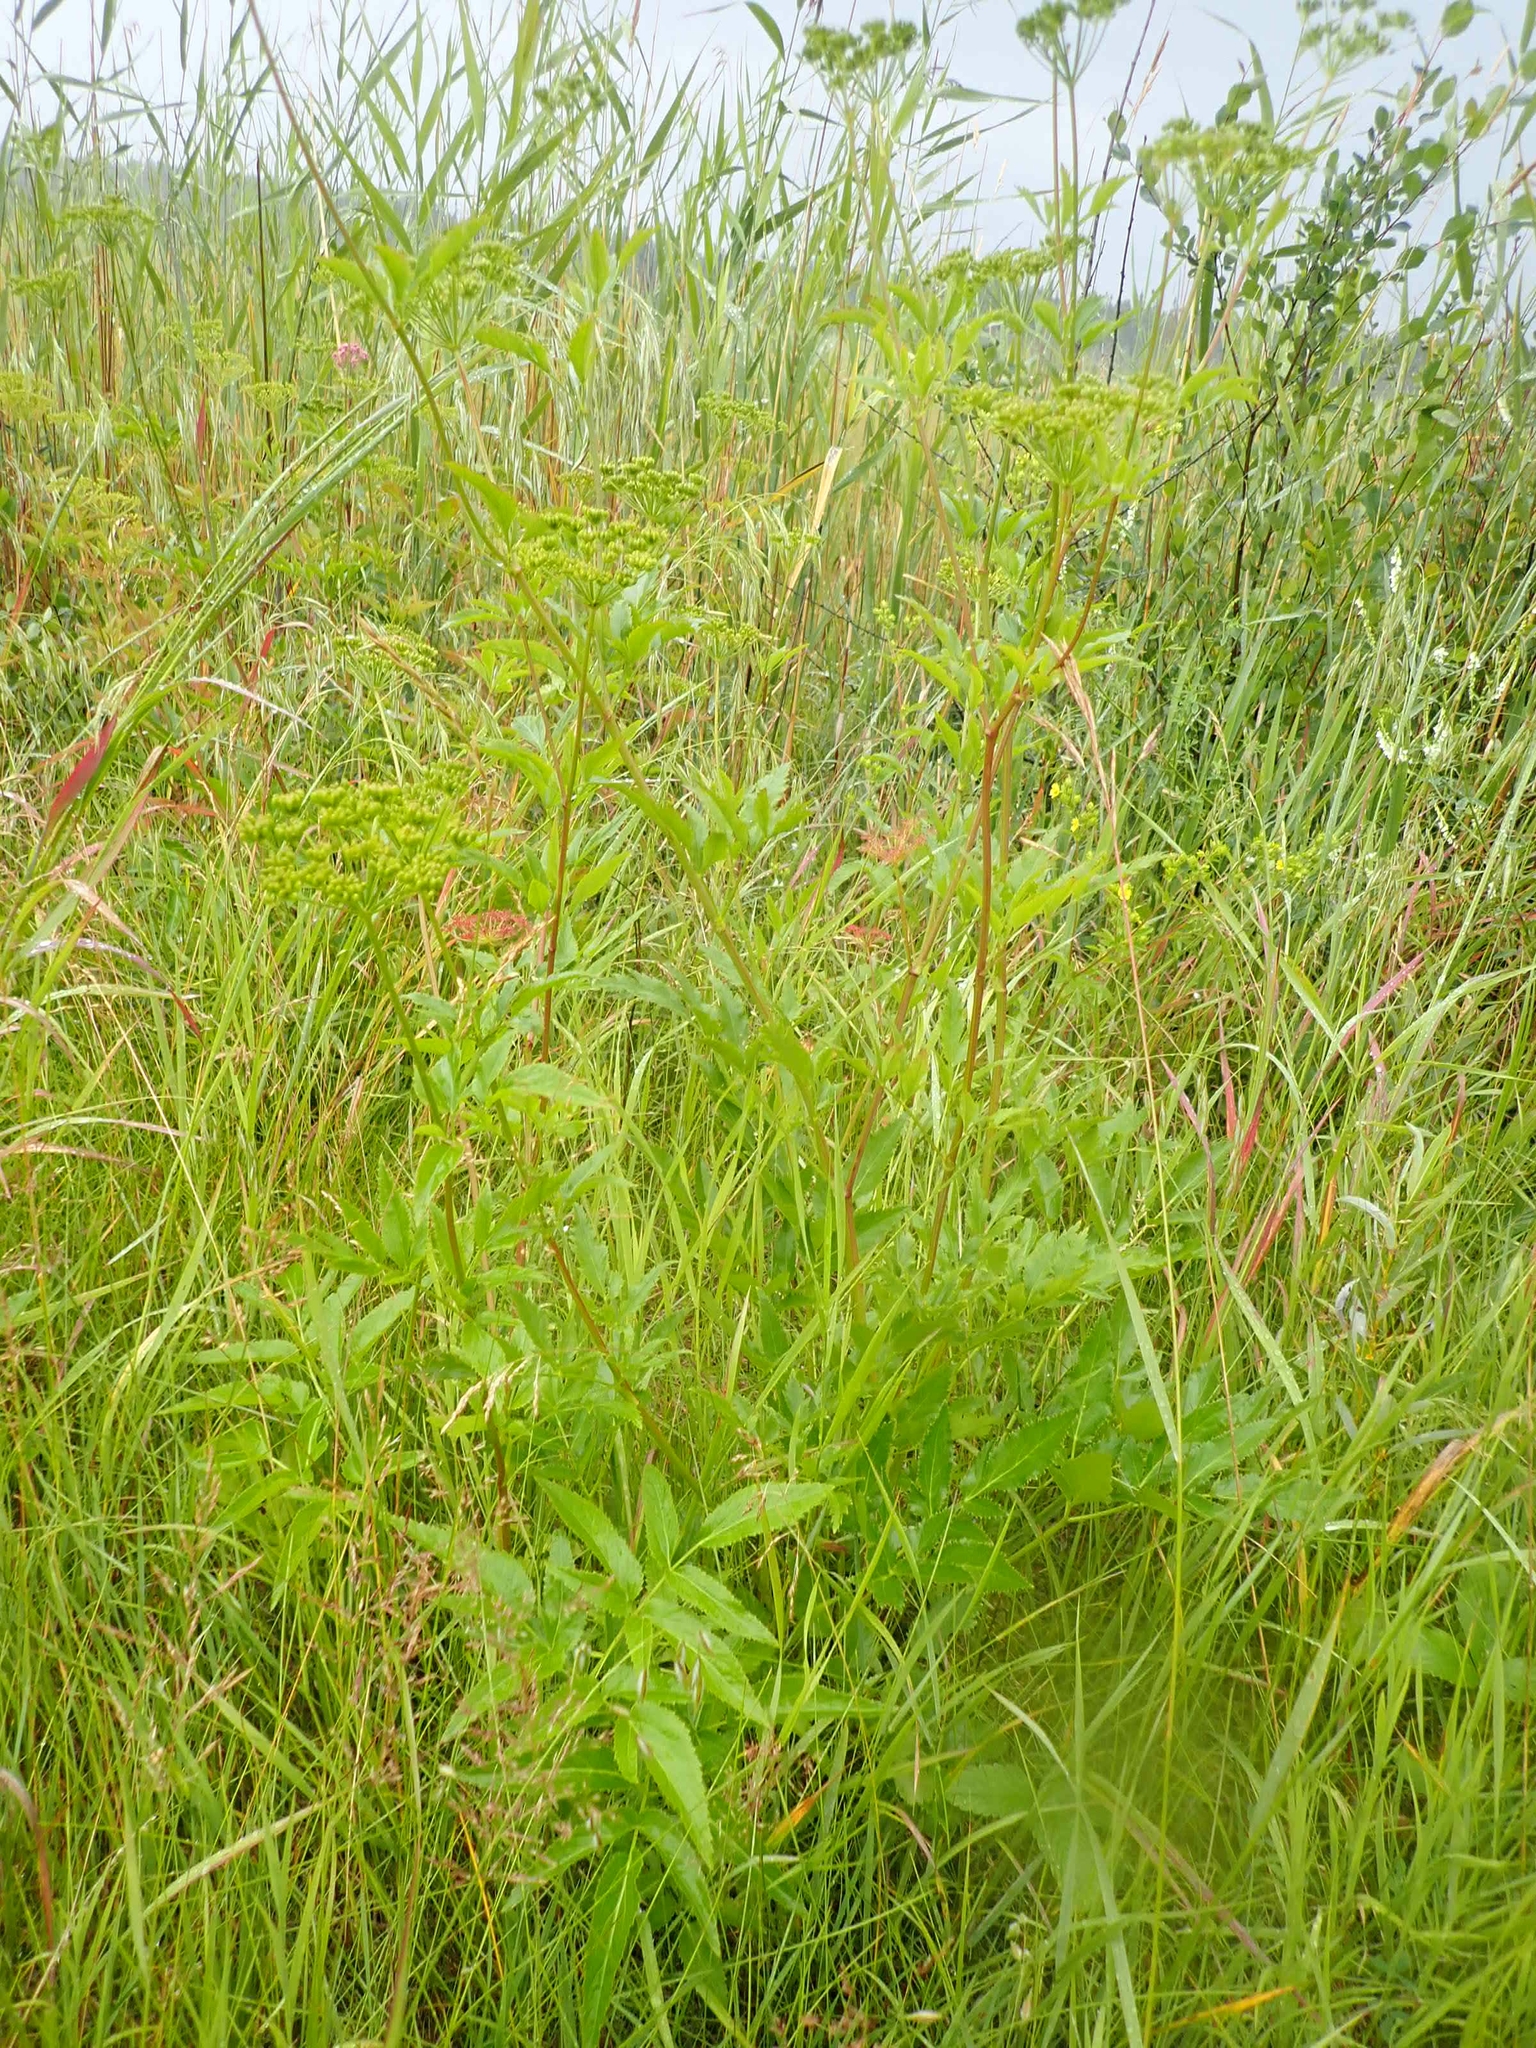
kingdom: Plantae
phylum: Tracheophyta
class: Magnoliopsida
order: Apiales
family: Apiaceae
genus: Cicuta
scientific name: Cicuta maculata
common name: Spotted cowbane
